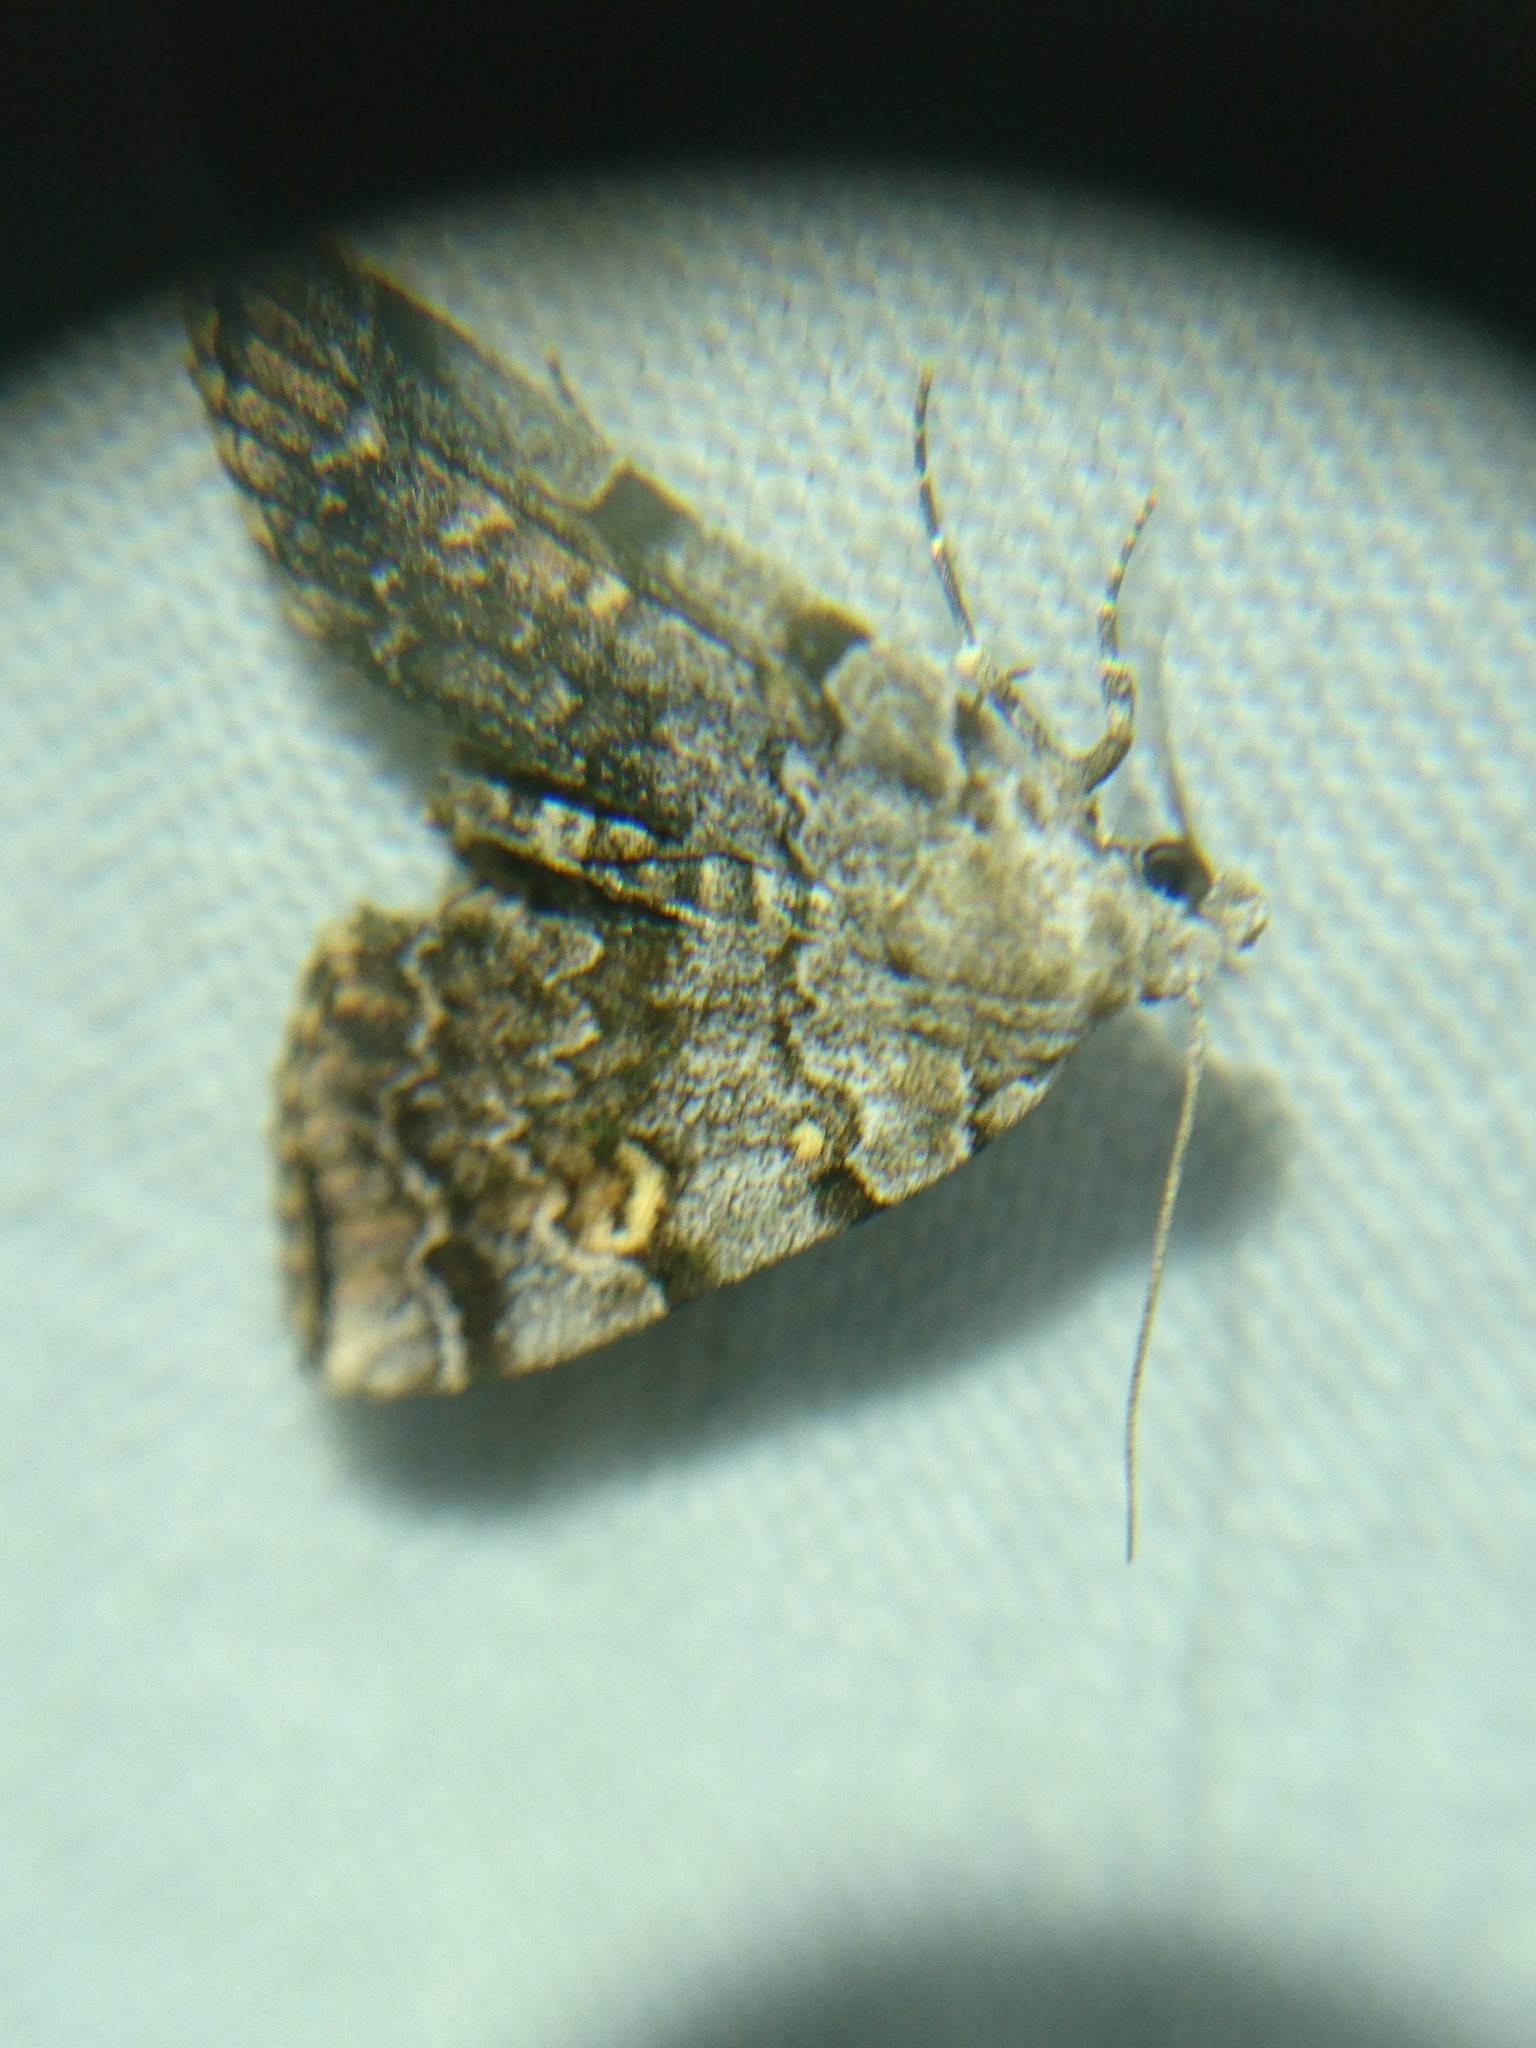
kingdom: Animalia
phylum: Arthropoda
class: Insecta
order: Lepidoptera
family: Erebidae
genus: Idia
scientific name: Idia americalis
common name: American idia moth
